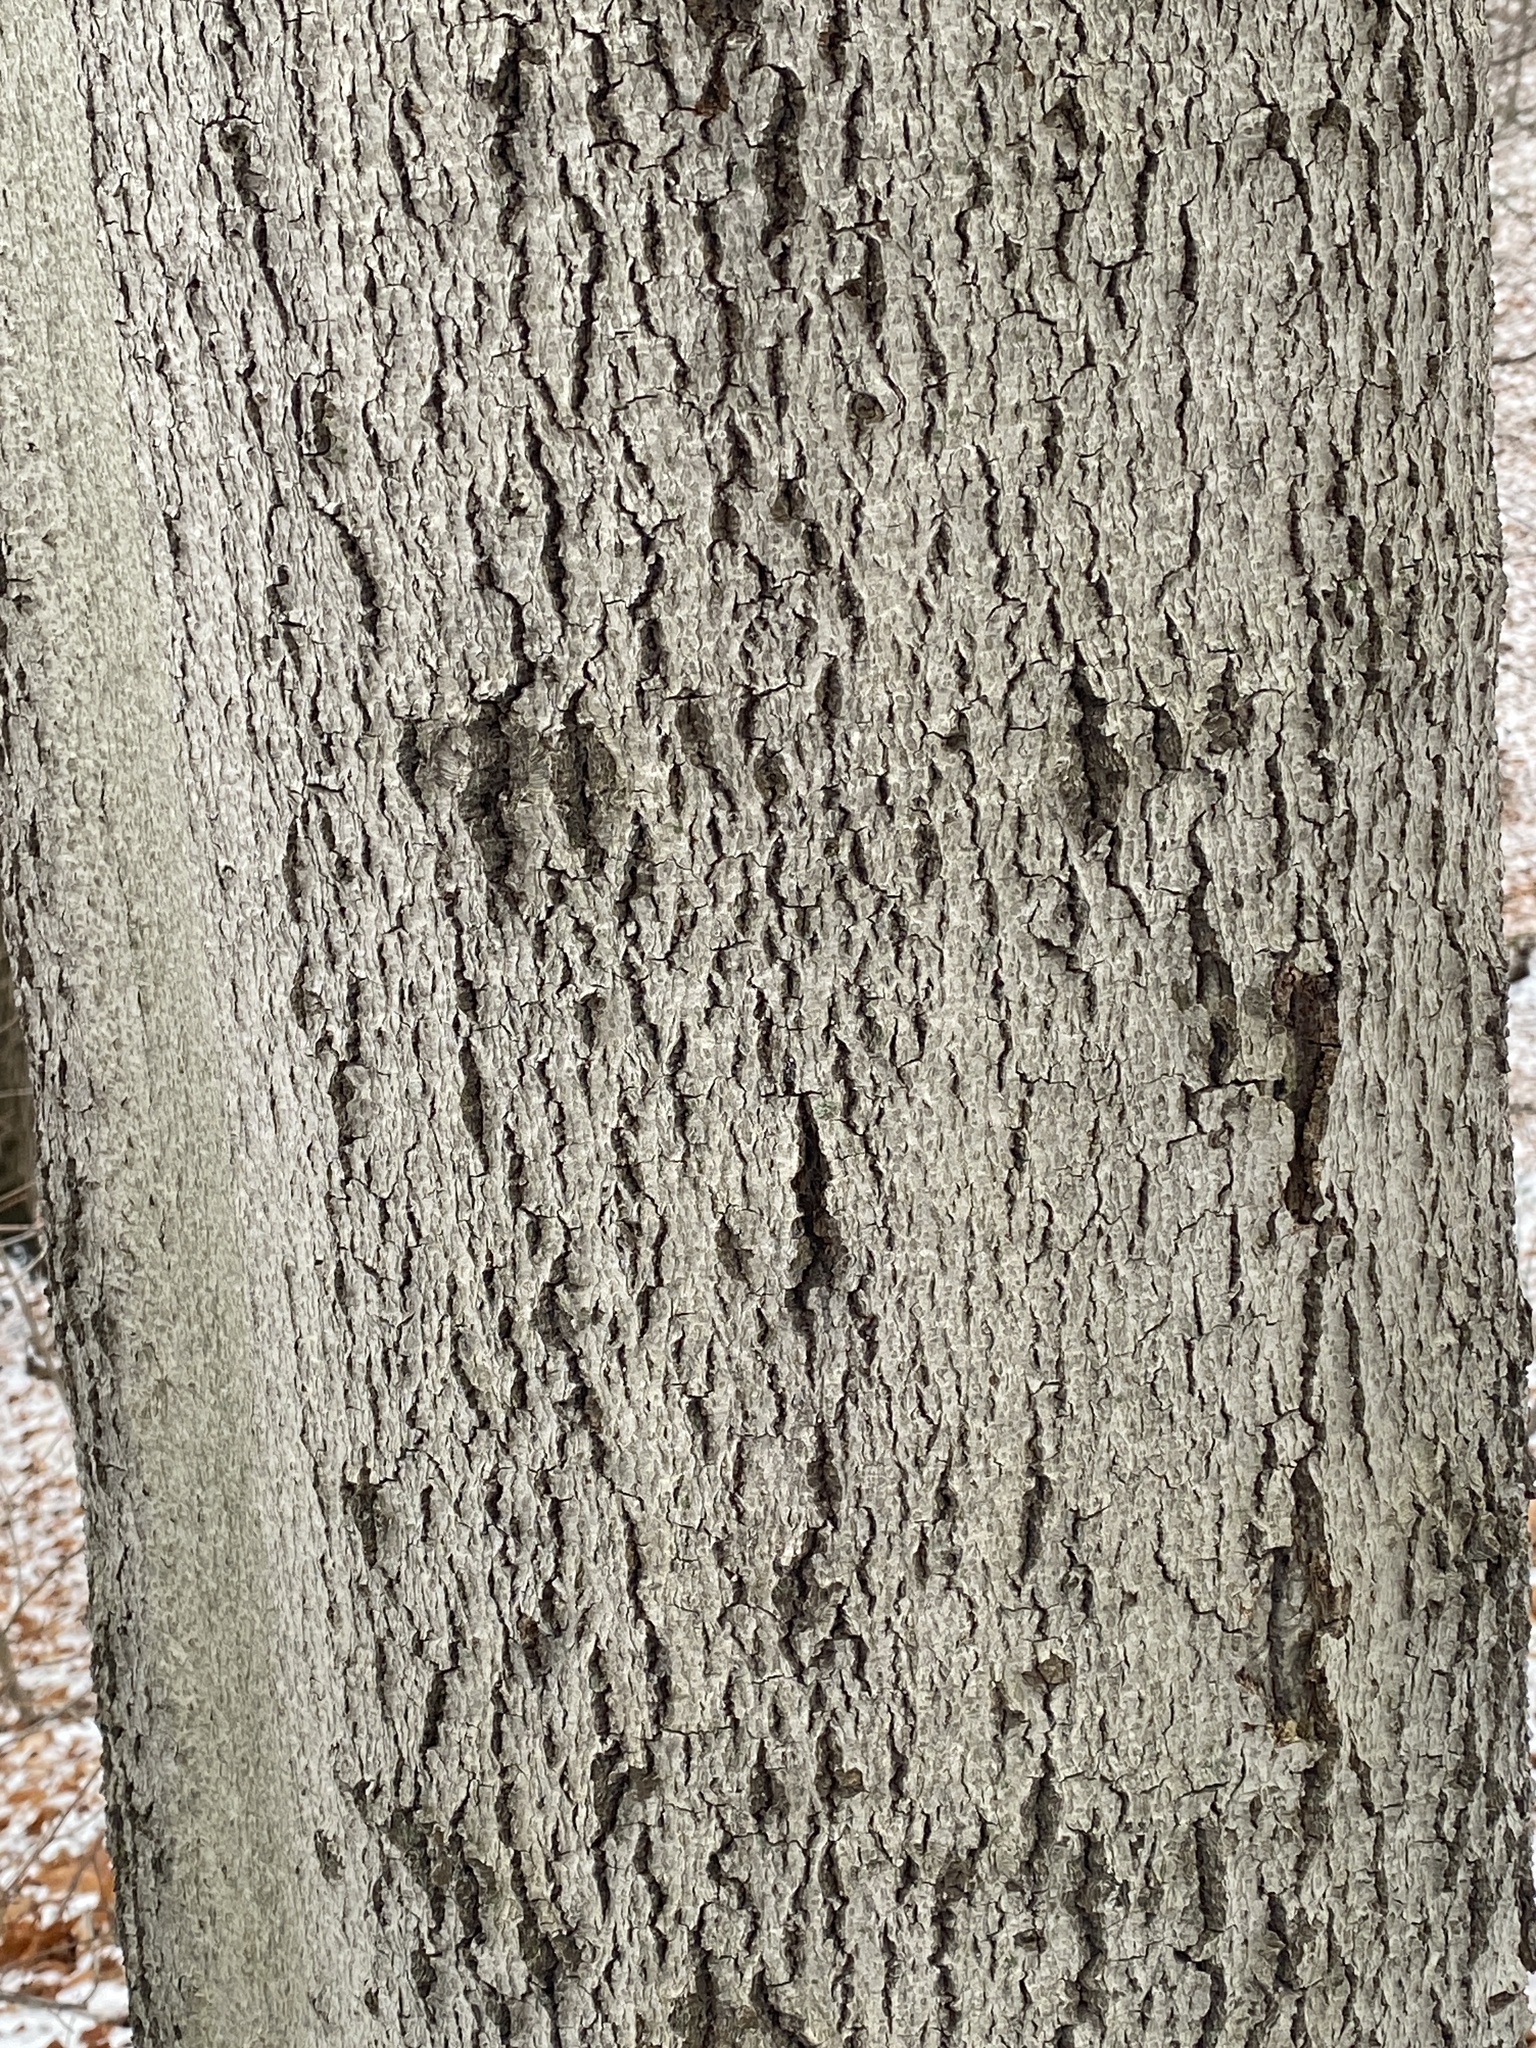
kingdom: Fungi
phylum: Ascomycota
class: Sordariomycetes
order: Hypocreales
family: Nectriaceae
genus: Neonectria
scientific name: Neonectria faginata
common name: Beech bark canker
